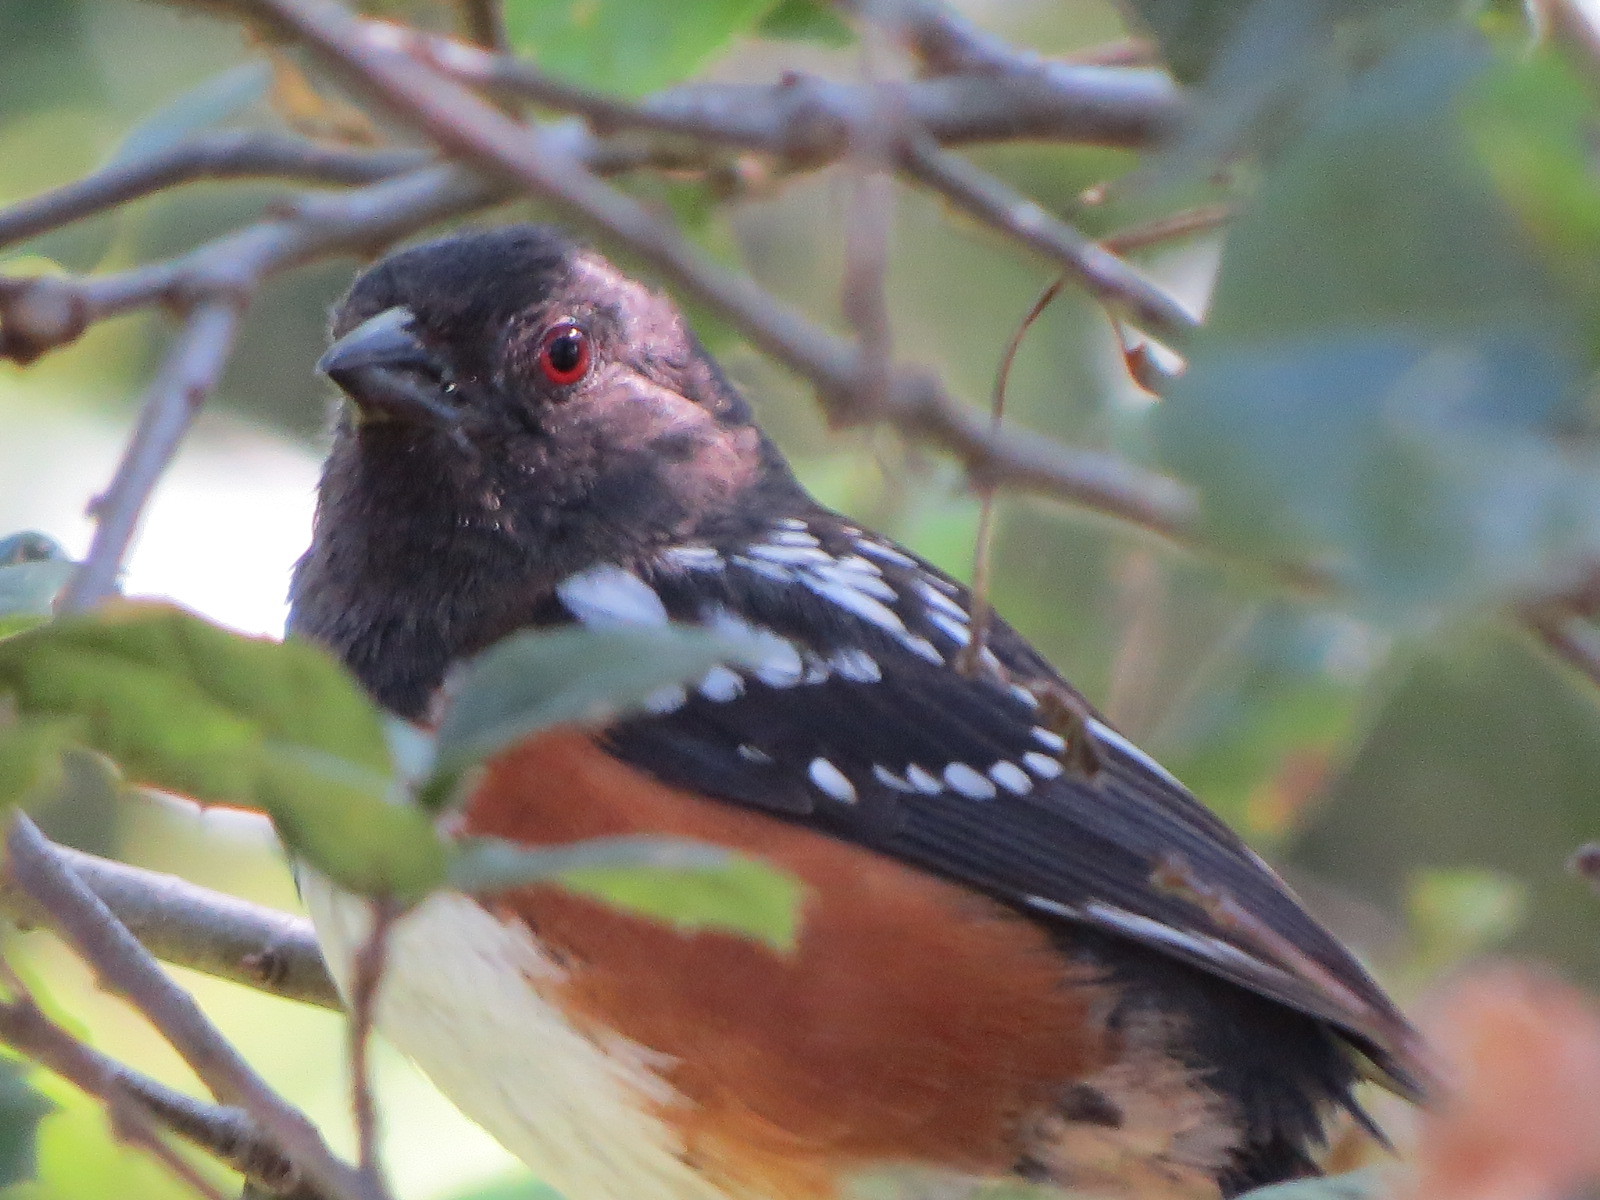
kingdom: Animalia
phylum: Chordata
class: Aves
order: Passeriformes
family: Passerellidae
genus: Pipilo
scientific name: Pipilo maculatus
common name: Spotted towhee
